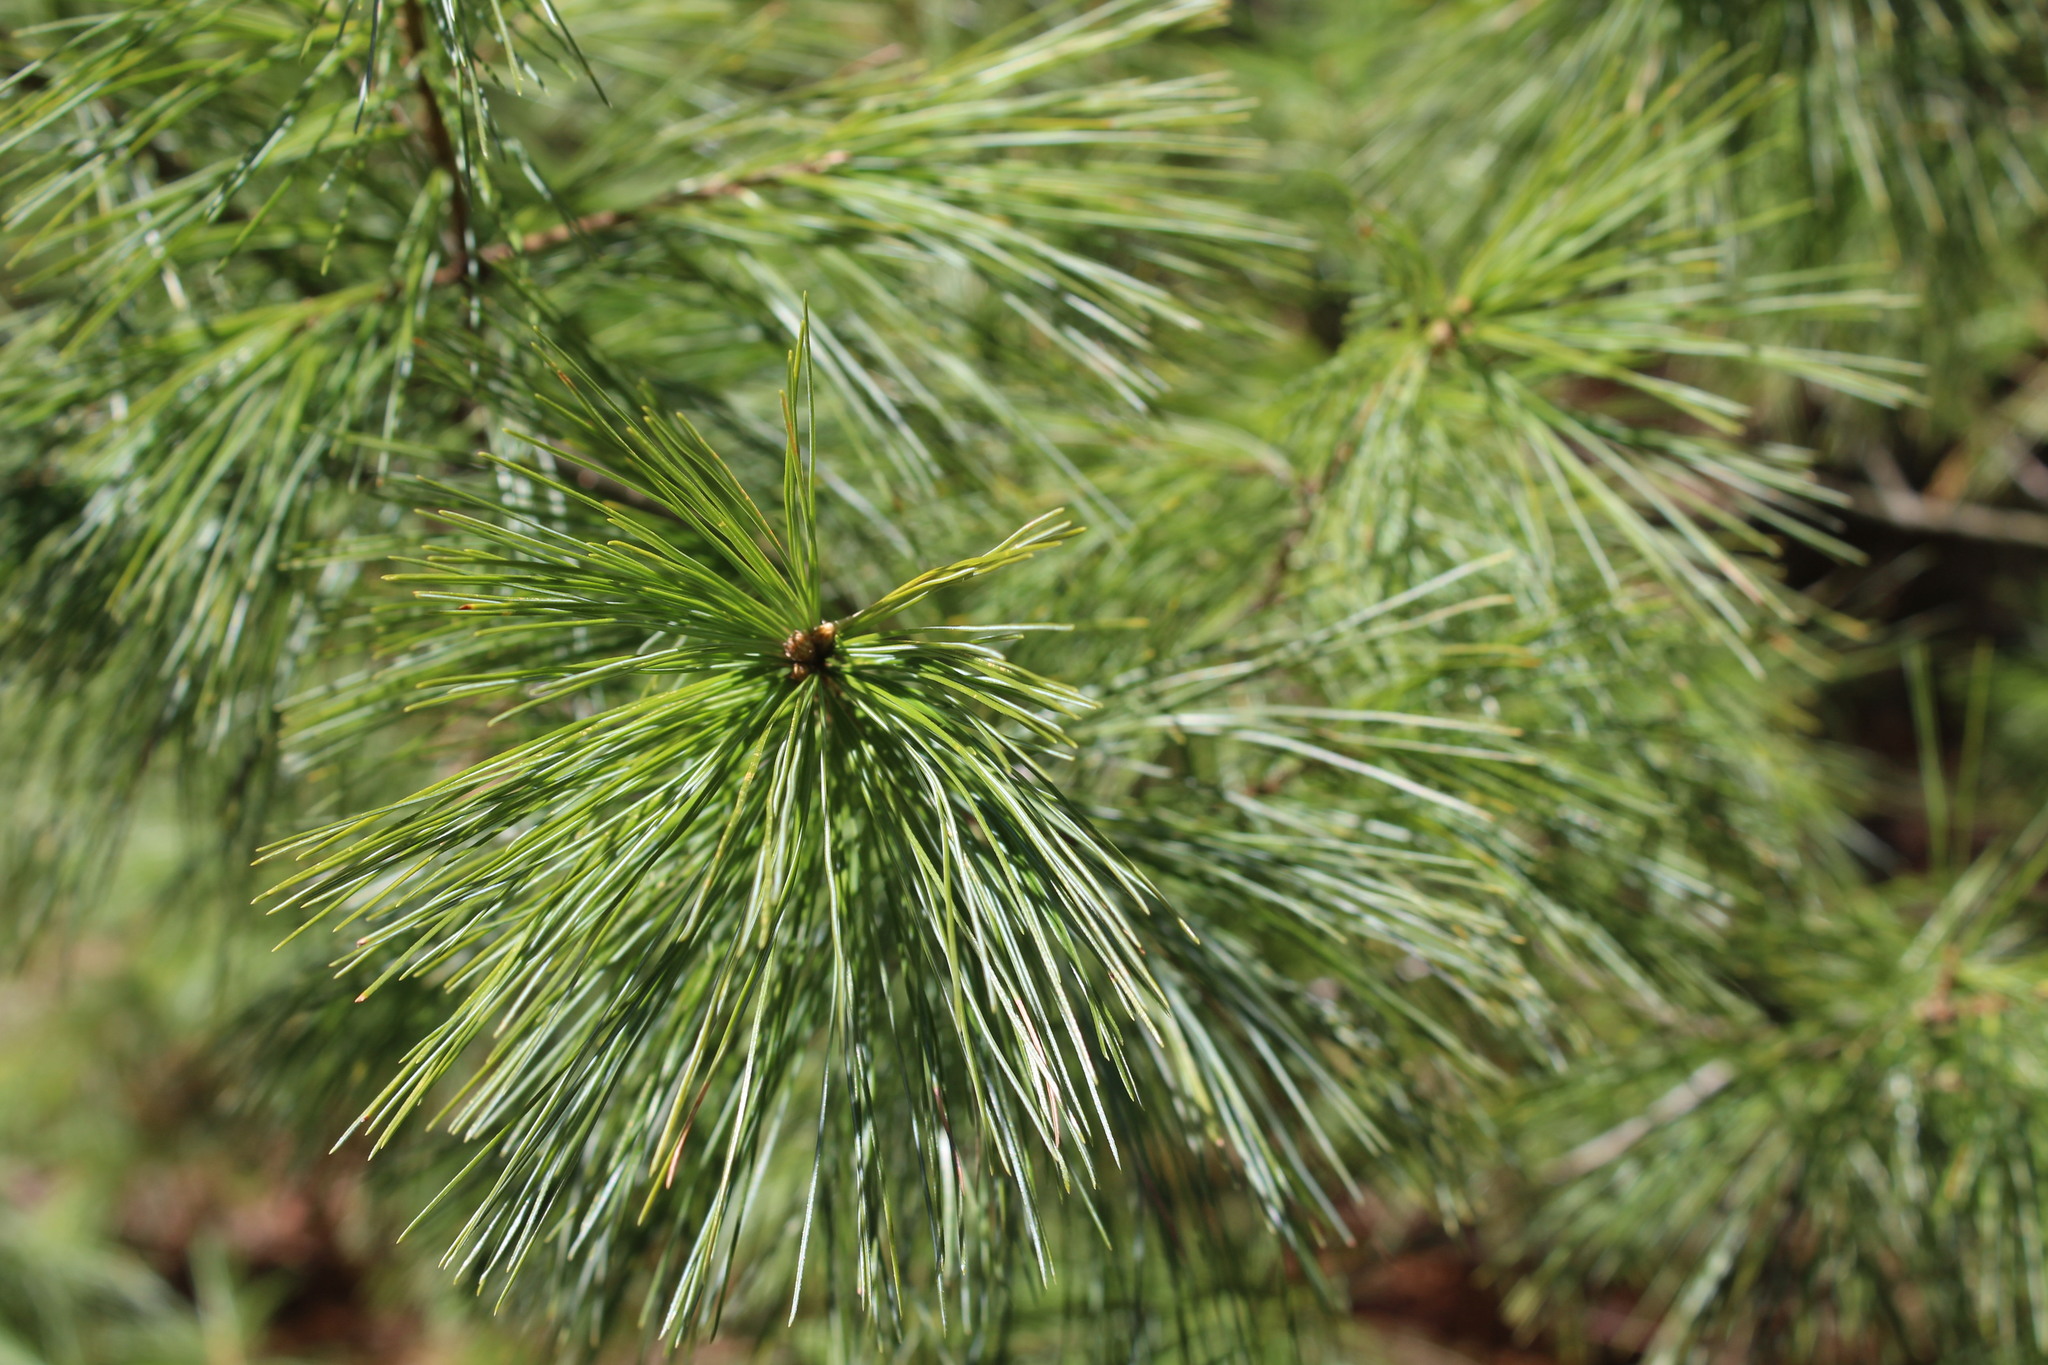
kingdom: Plantae
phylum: Tracheophyta
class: Pinopsida
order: Pinales
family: Pinaceae
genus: Pinus
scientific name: Pinus strobus
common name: Weymouth pine
